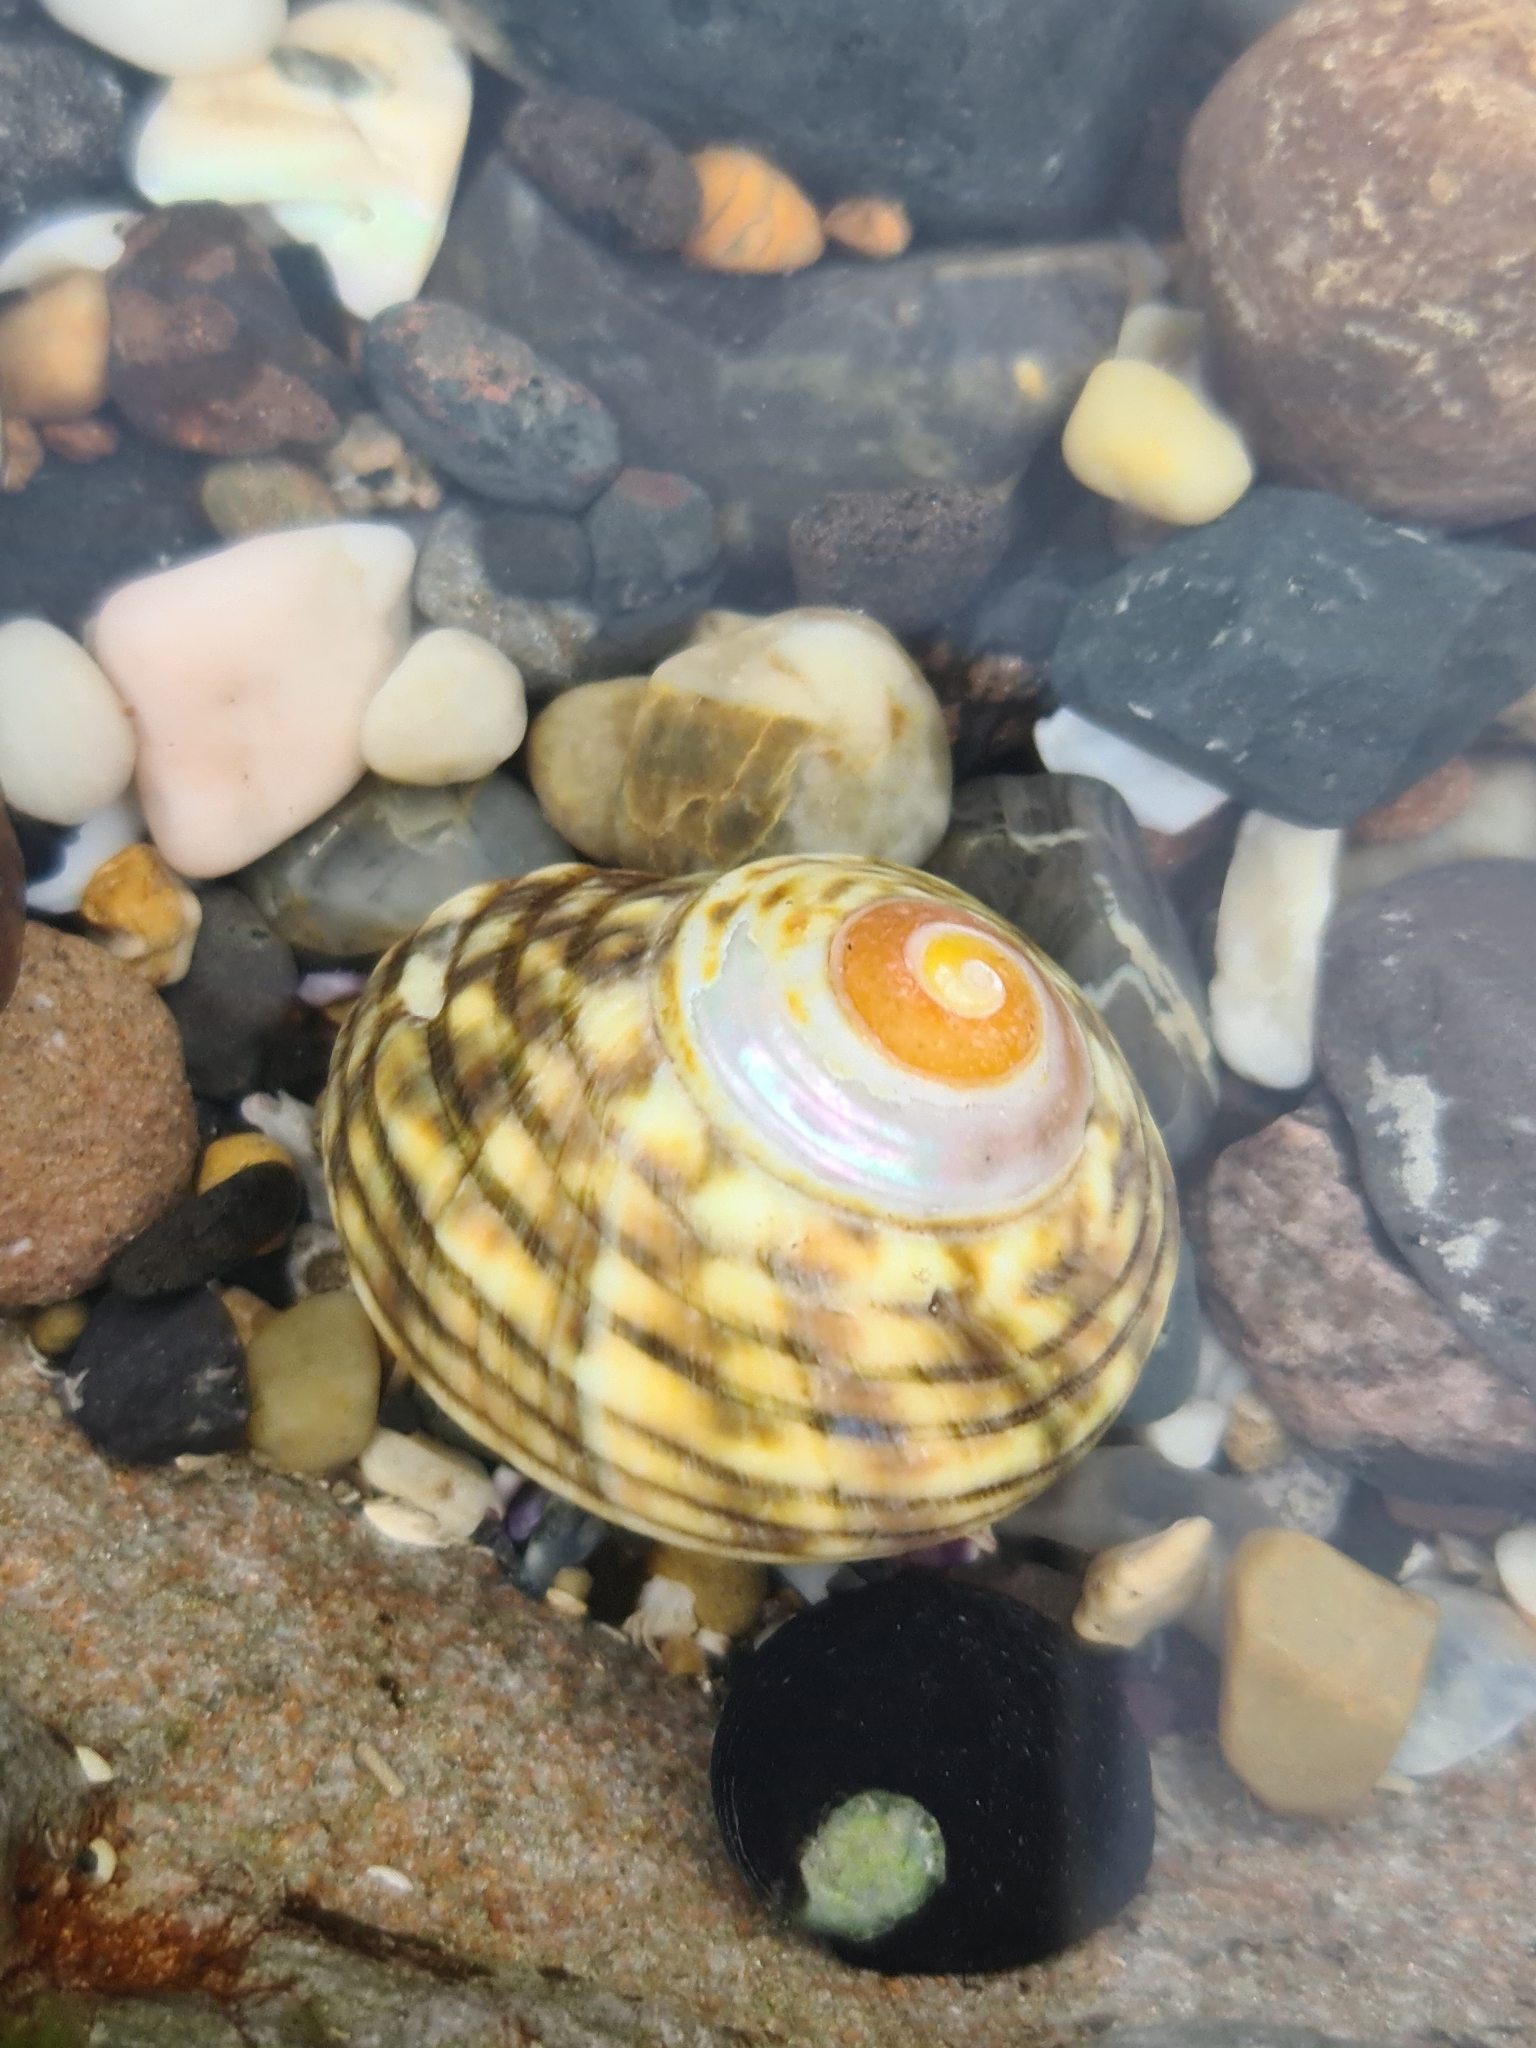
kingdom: Animalia
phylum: Mollusca
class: Gastropoda
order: Trochida
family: Turbinidae
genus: Lunella
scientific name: Lunella undulata
